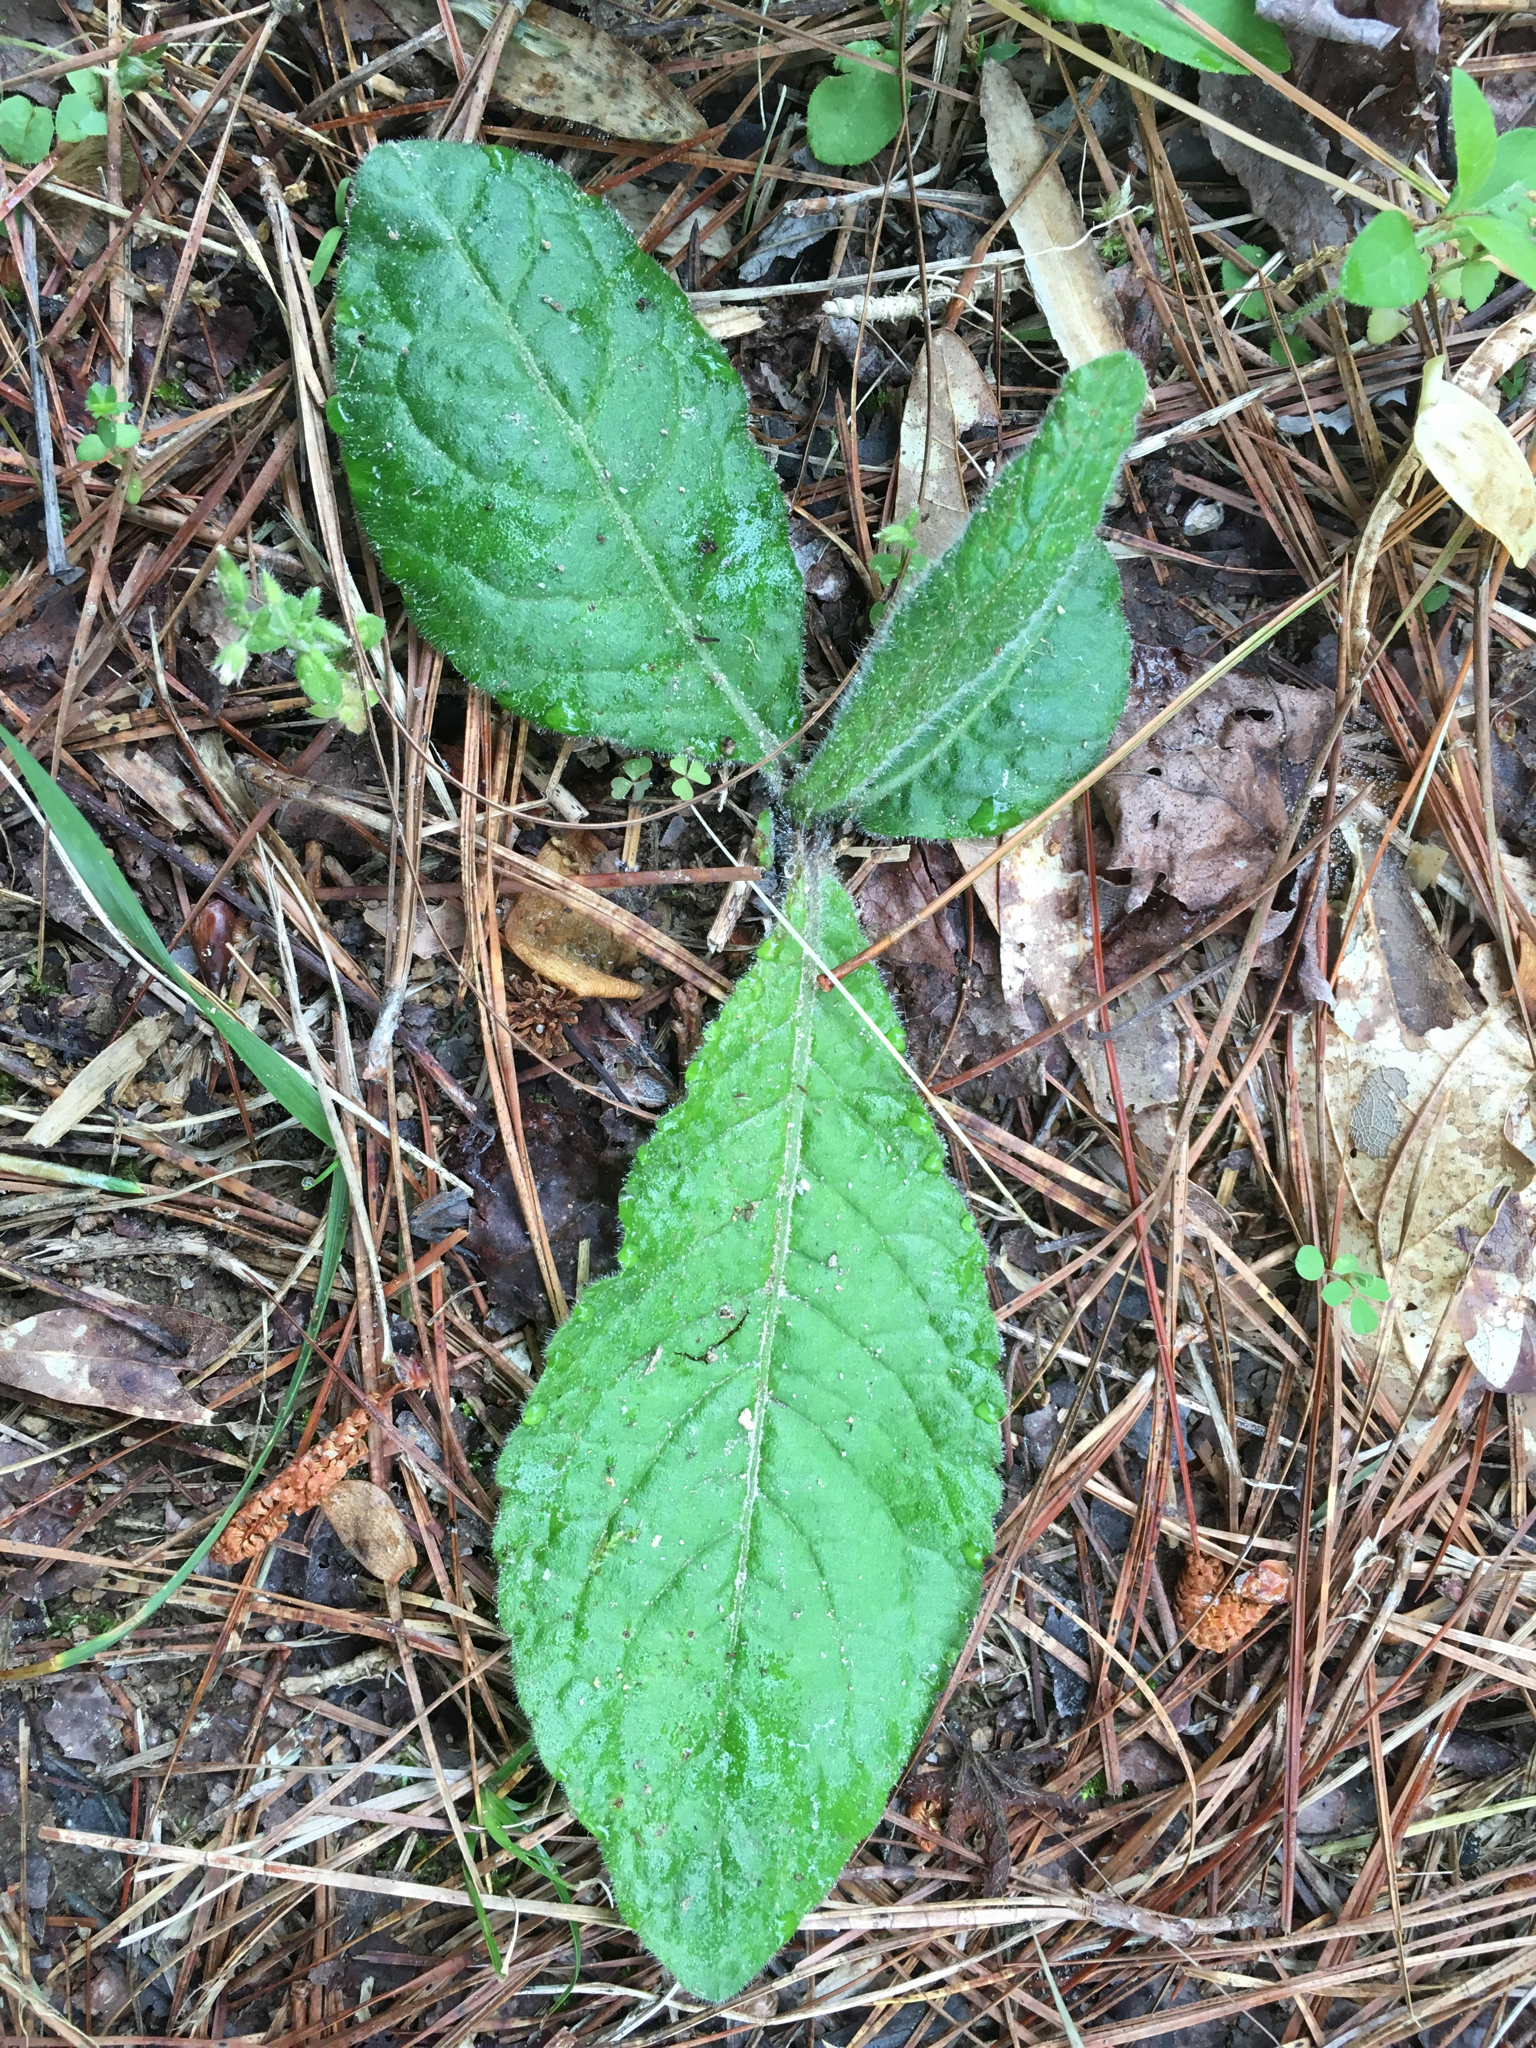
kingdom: Plantae
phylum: Tracheophyta
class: Magnoliopsida
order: Asterales
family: Asteraceae
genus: Elephantopus
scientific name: Elephantopus tomentosus
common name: Tobacco-weed
